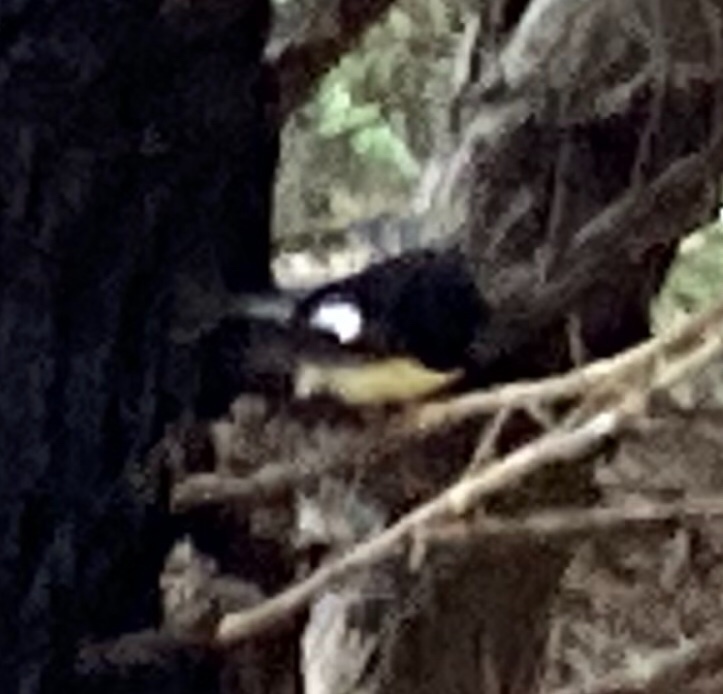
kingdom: Animalia
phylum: Chordata
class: Aves
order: Passeriformes
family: Petroicidae
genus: Petroica
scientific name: Petroica macrocephala
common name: Tomtit
